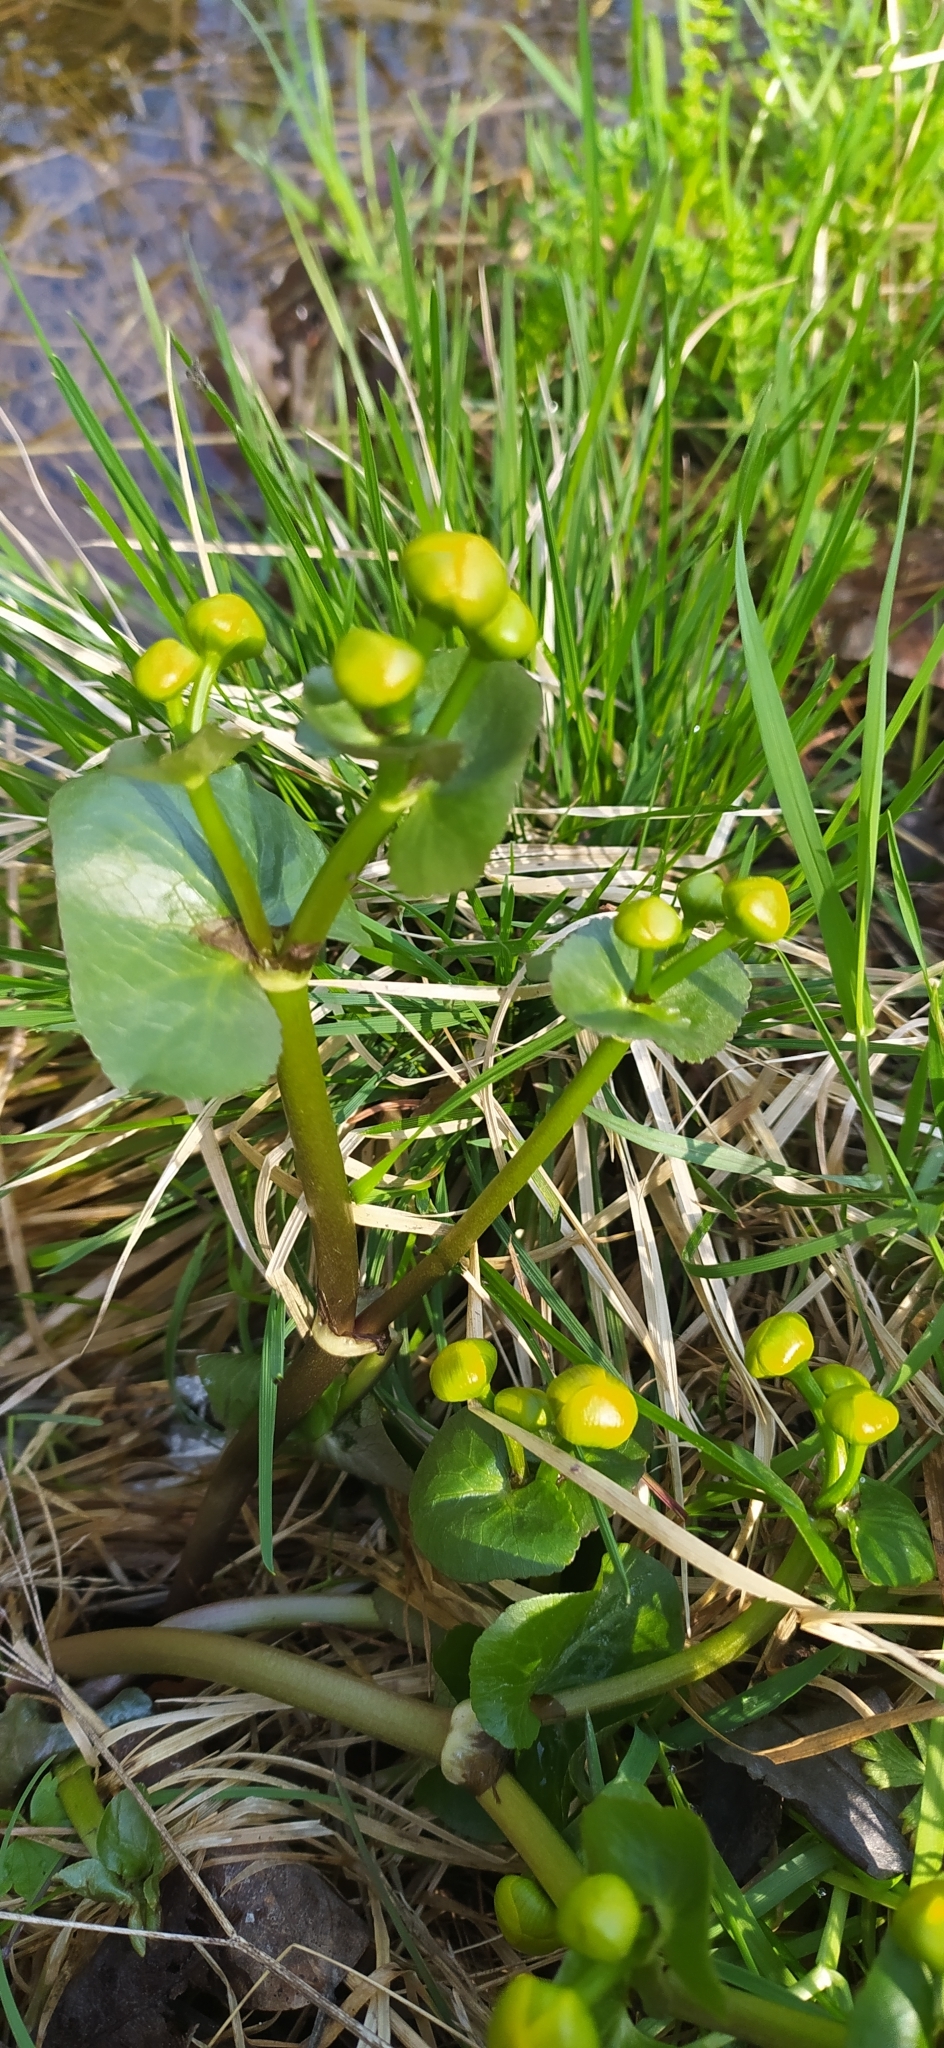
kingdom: Plantae
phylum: Tracheophyta
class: Magnoliopsida
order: Ranunculales
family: Ranunculaceae
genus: Caltha
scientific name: Caltha palustris
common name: Marsh marigold
